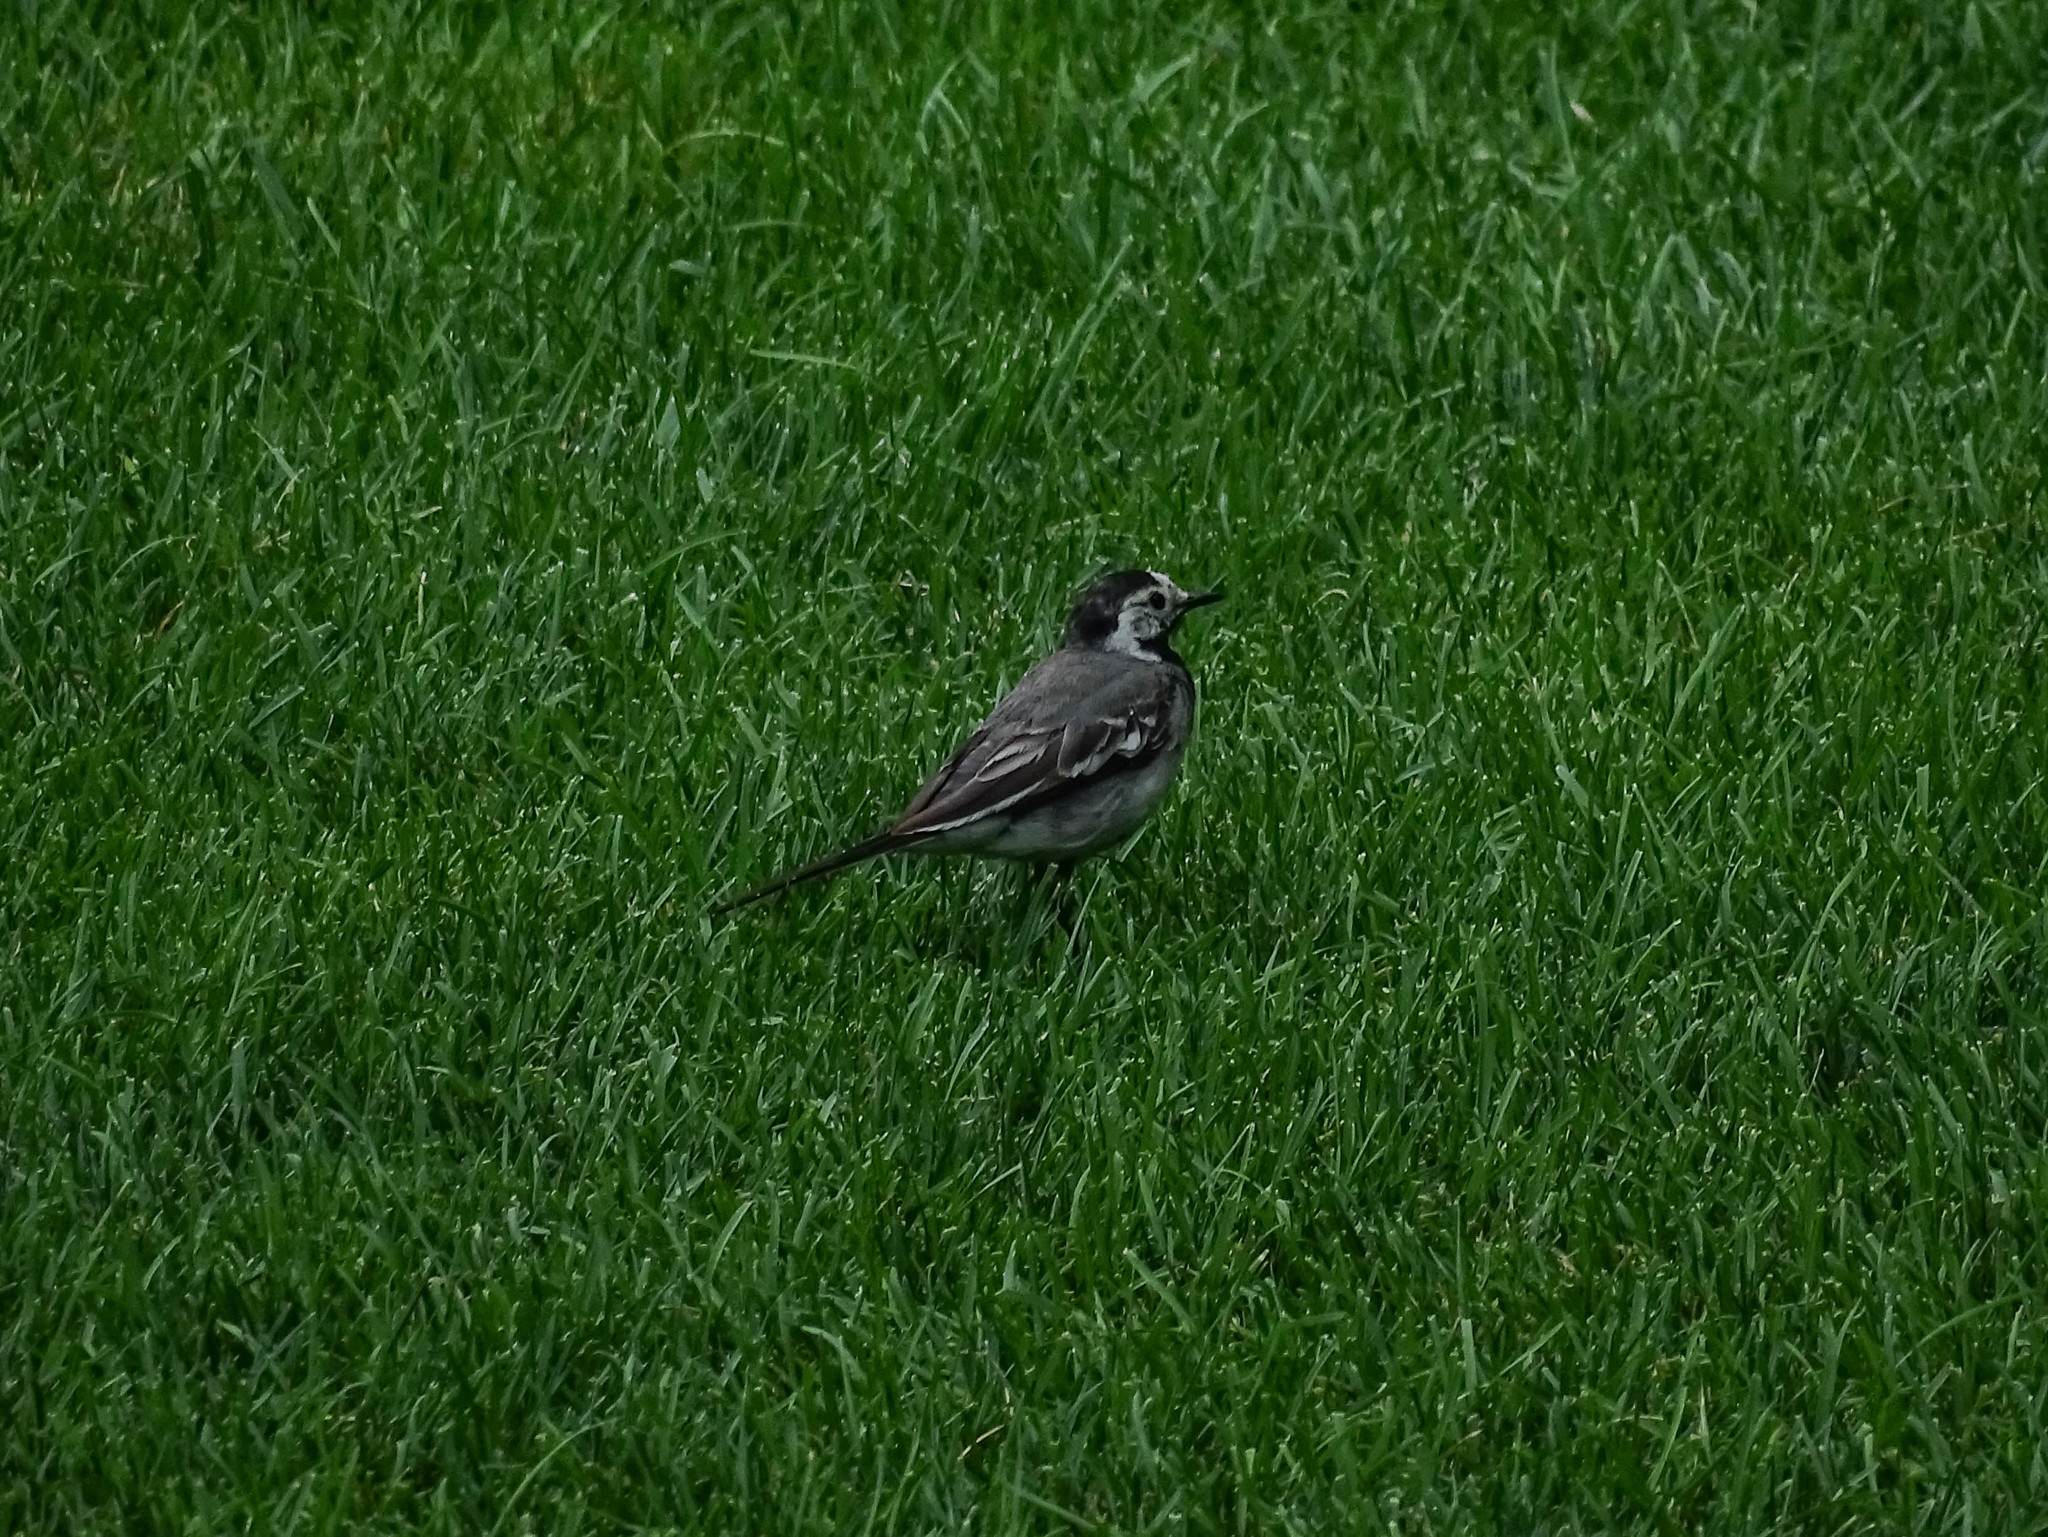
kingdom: Animalia
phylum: Chordata
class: Aves
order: Passeriformes
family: Motacillidae
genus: Motacilla
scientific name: Motacilla alba
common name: White wagtail
